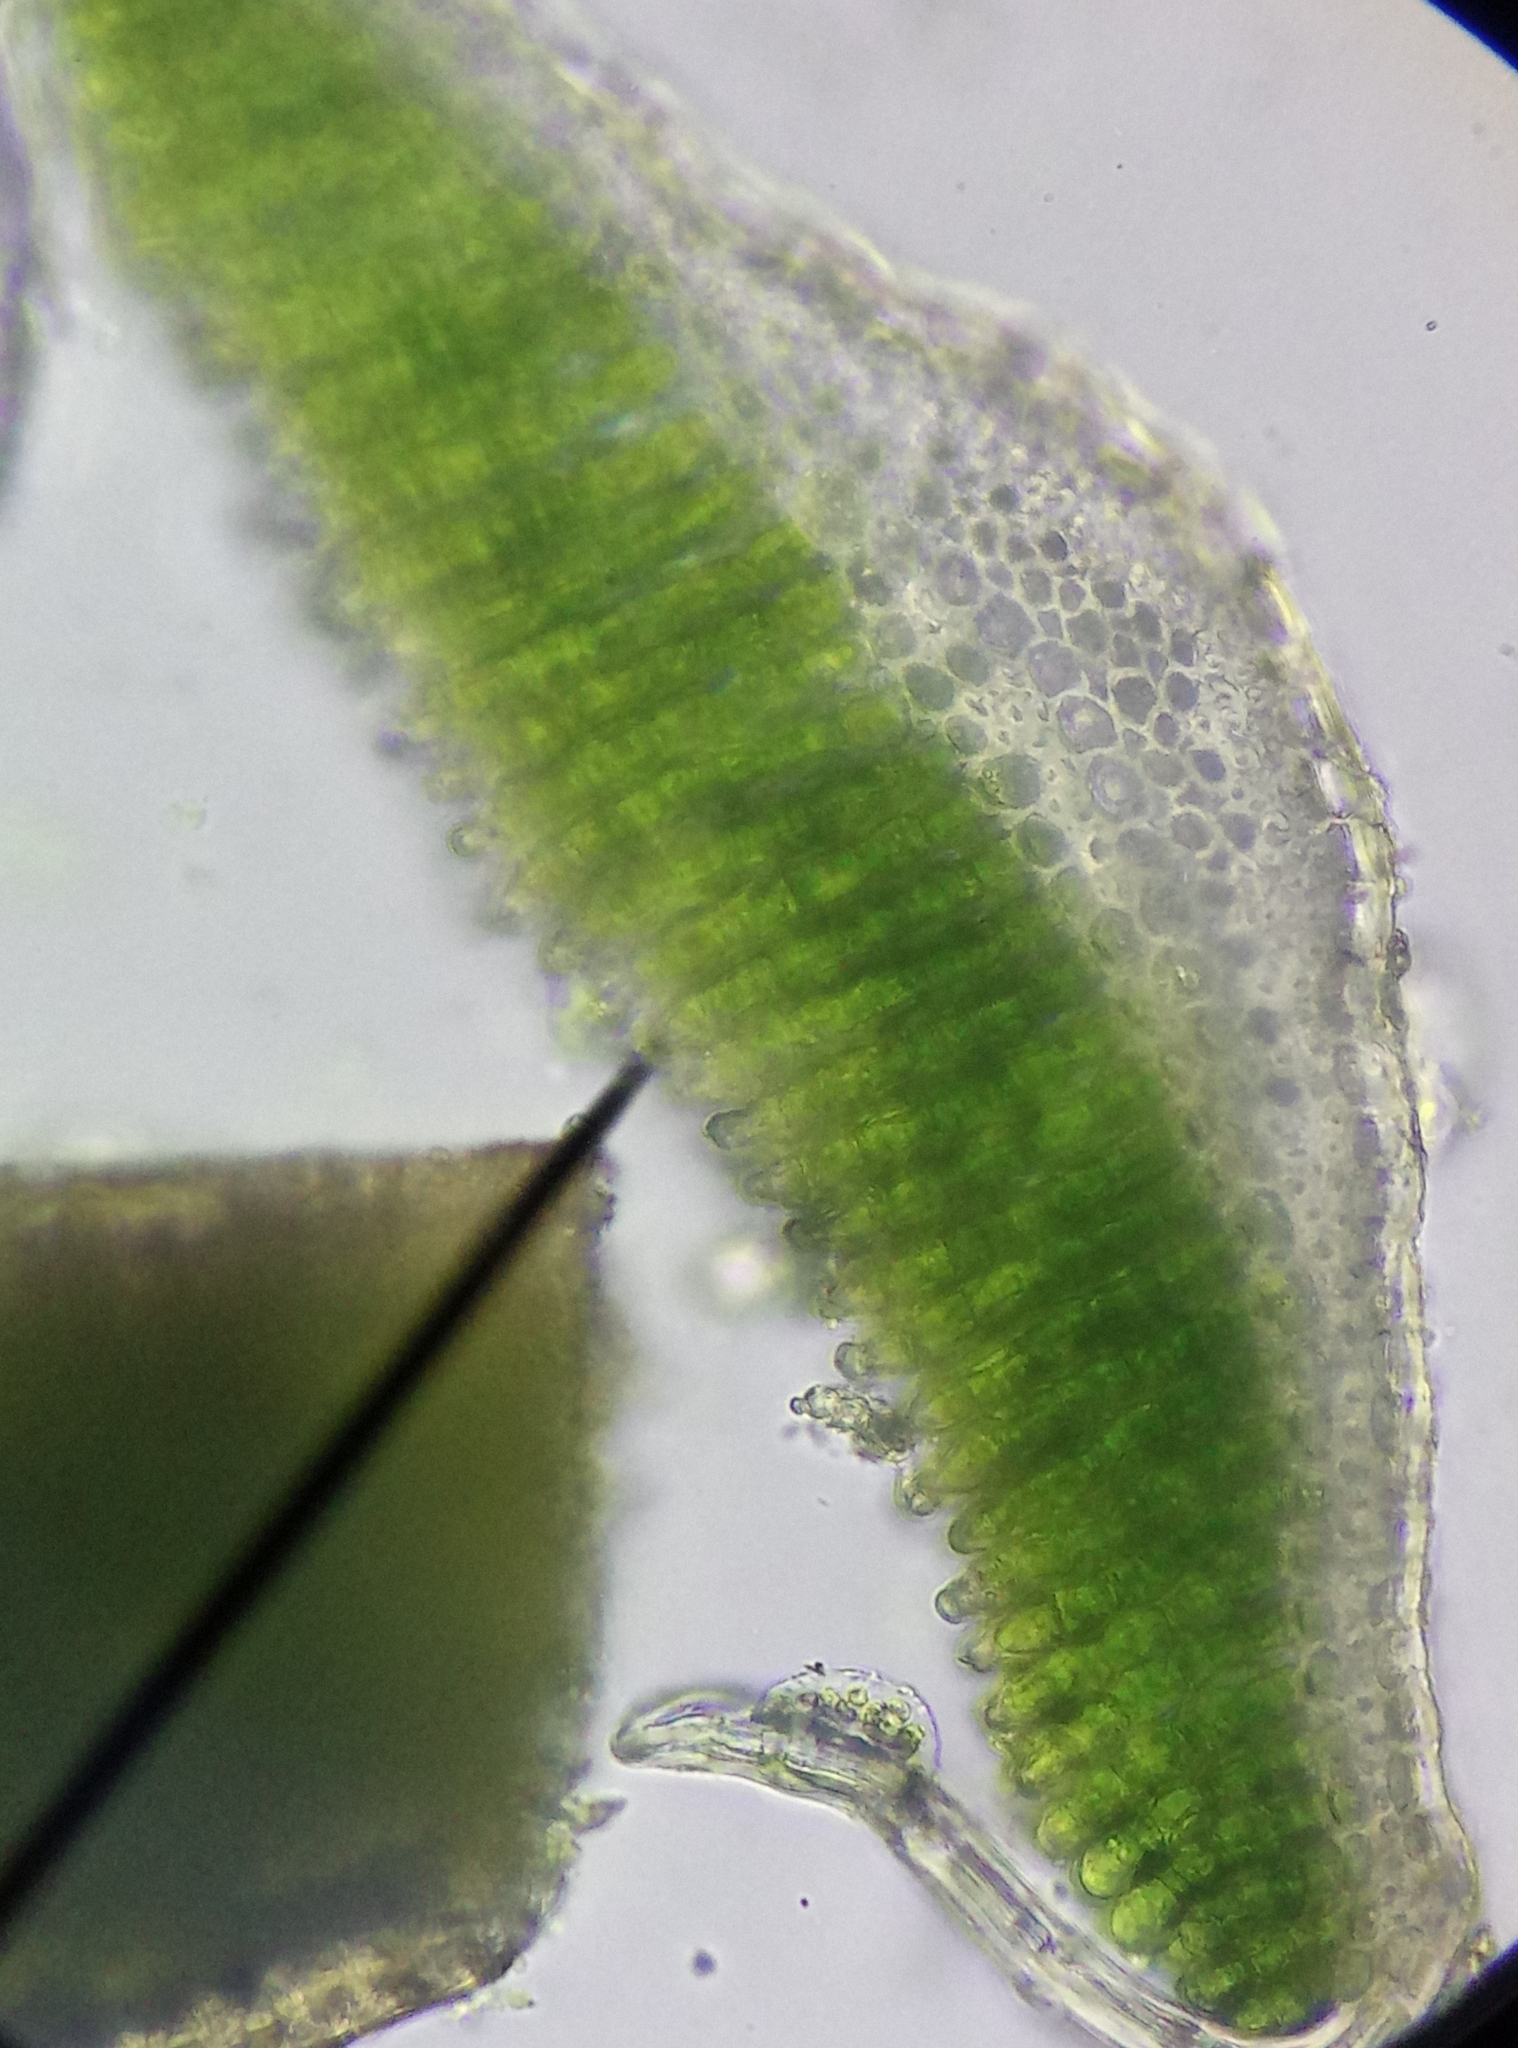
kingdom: Plantae
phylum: Bryophyta
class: Polytrichopsida
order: Polytrichales
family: Polytrichaceae
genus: Polytrichum
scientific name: Polytrichum juniperinum
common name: Juniper haircap moss
